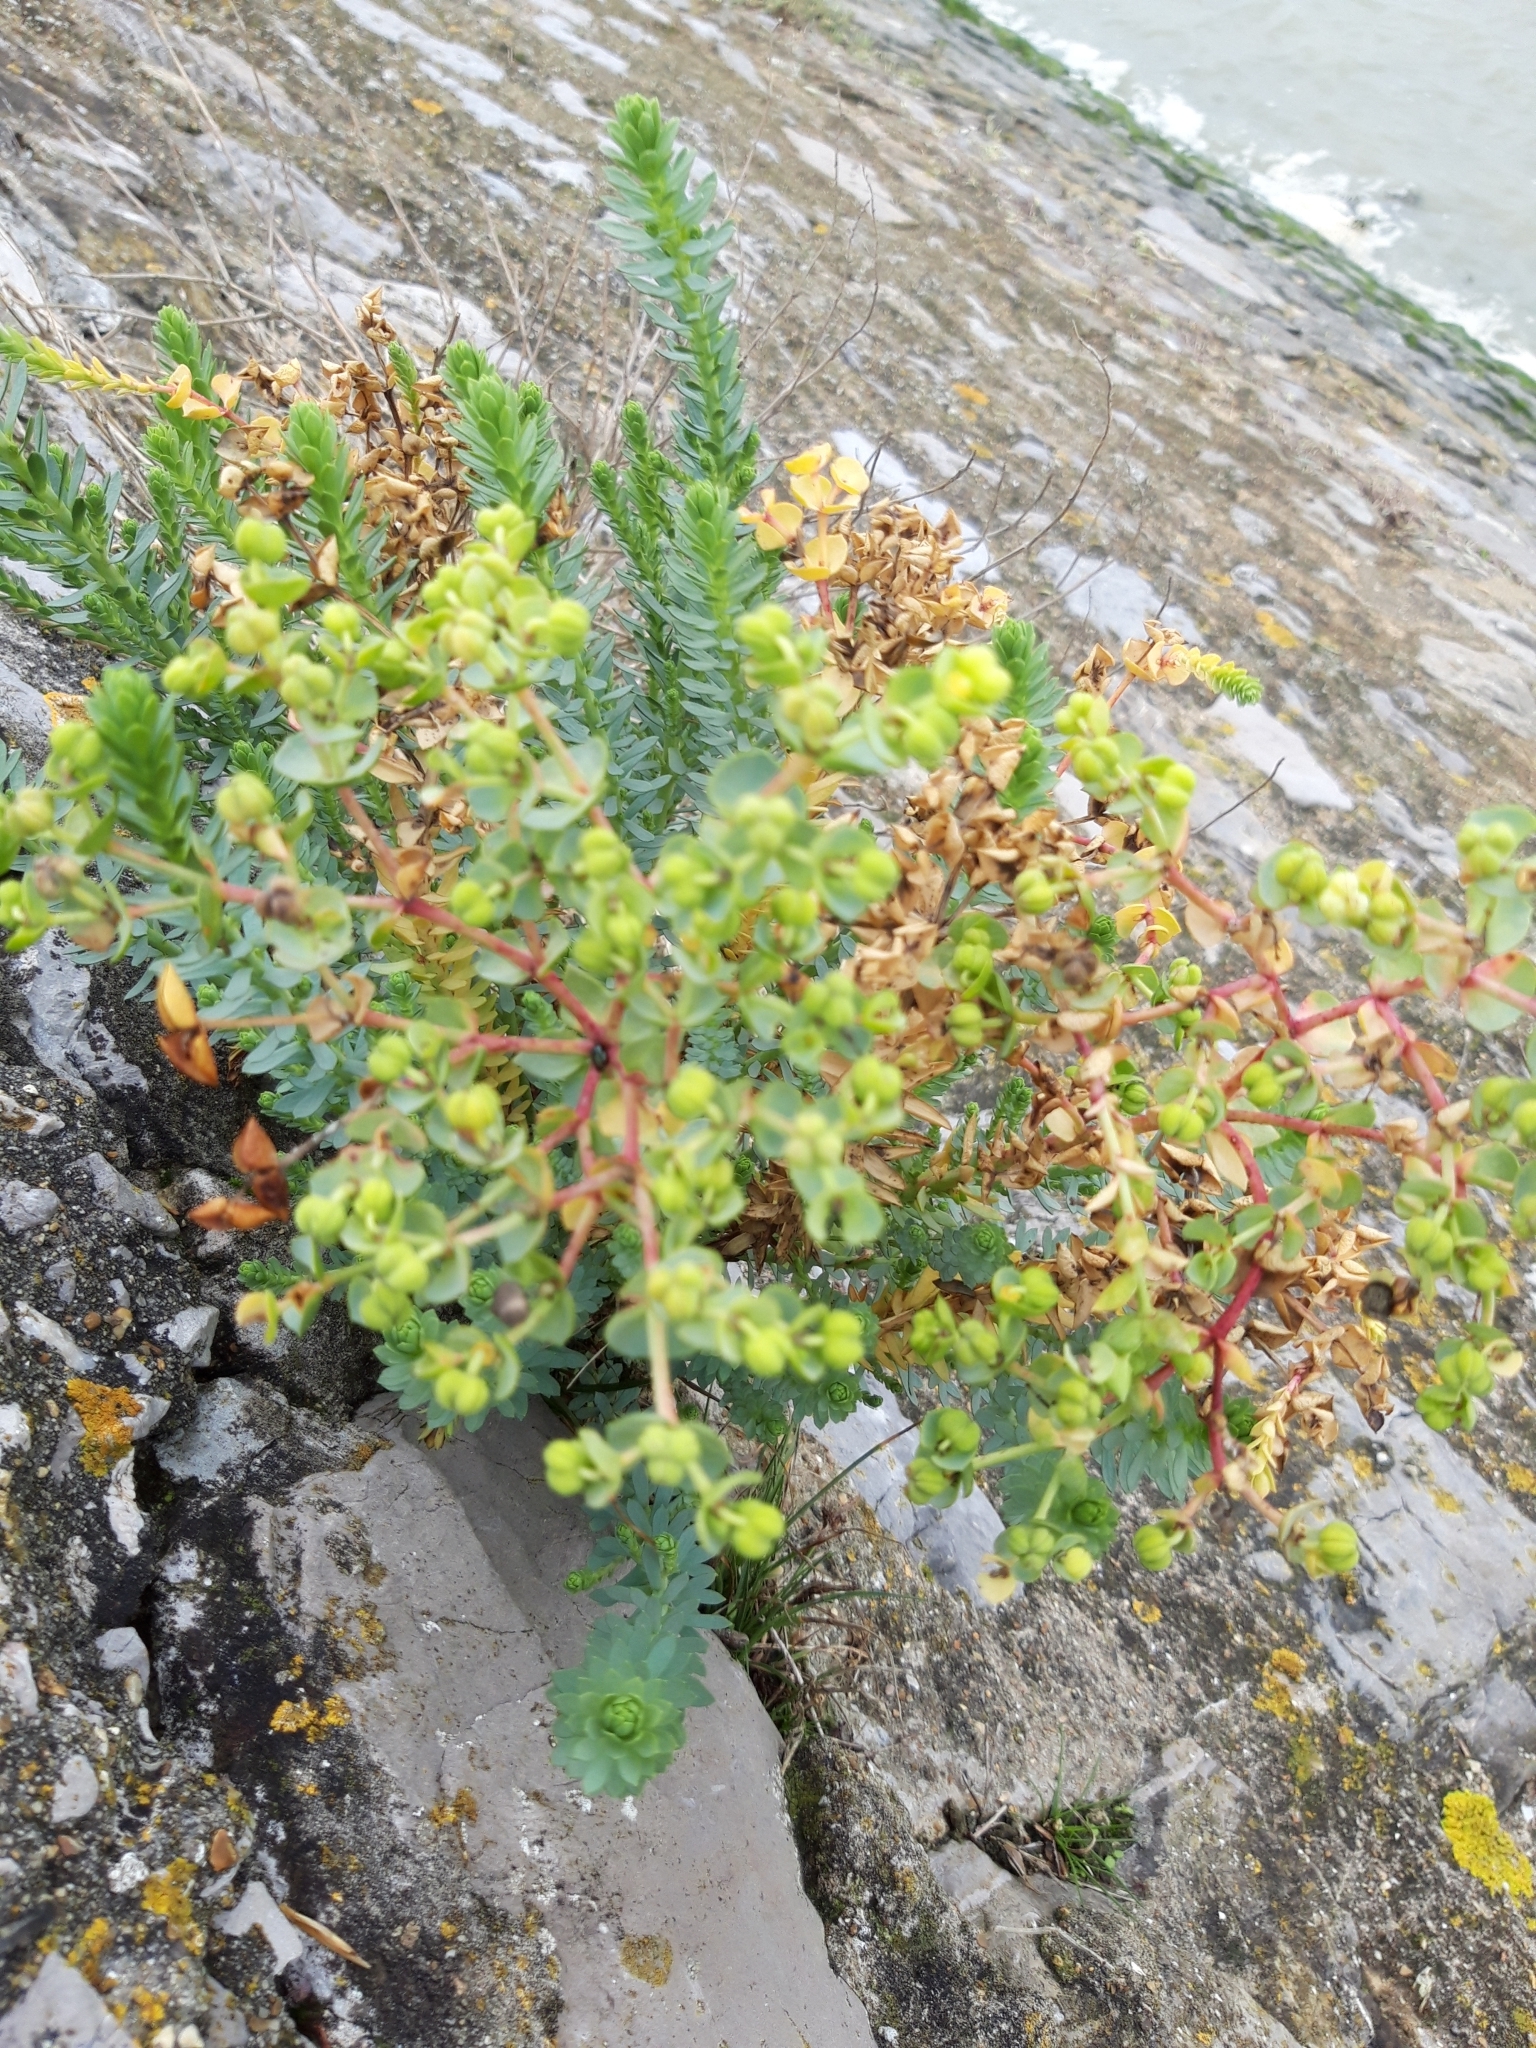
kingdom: Plantae
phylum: Tracheophyta
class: Magnoliopsida
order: Malpighiales
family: Euphorbiaceae
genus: Euphorbia
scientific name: Euphorbia paralias
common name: Sea spurge
